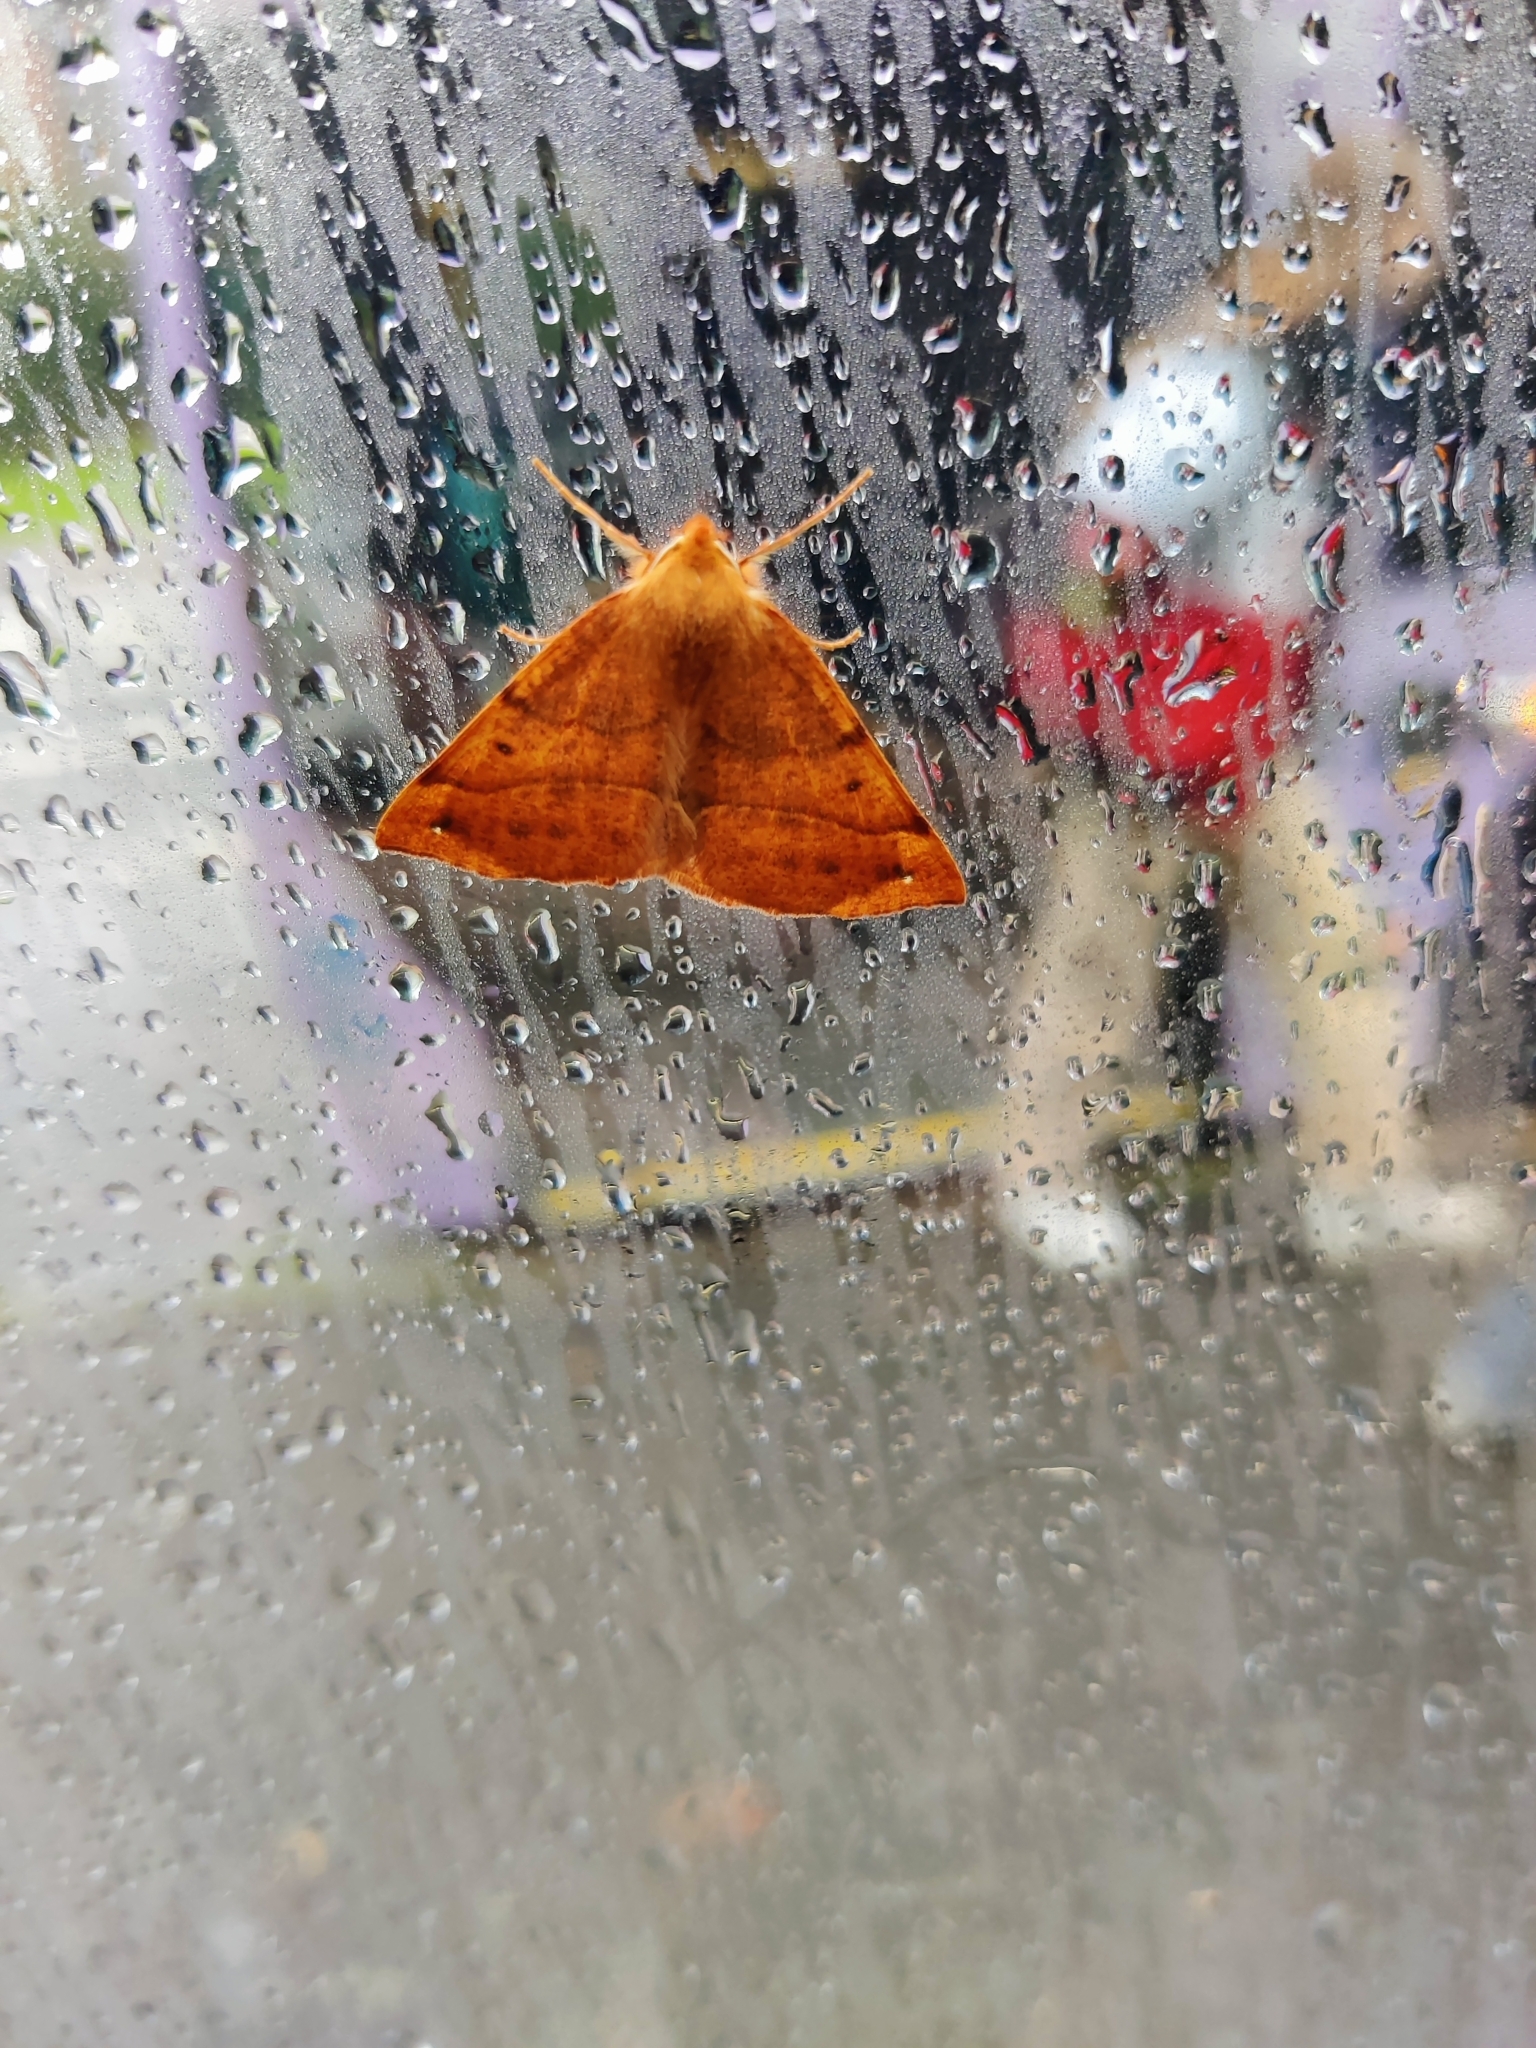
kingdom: Animalia
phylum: Arthropoda
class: Insecta
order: Lepidoptera
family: Geometridae
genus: Colotois
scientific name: Colotois pennaria
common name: Feathered thorn
